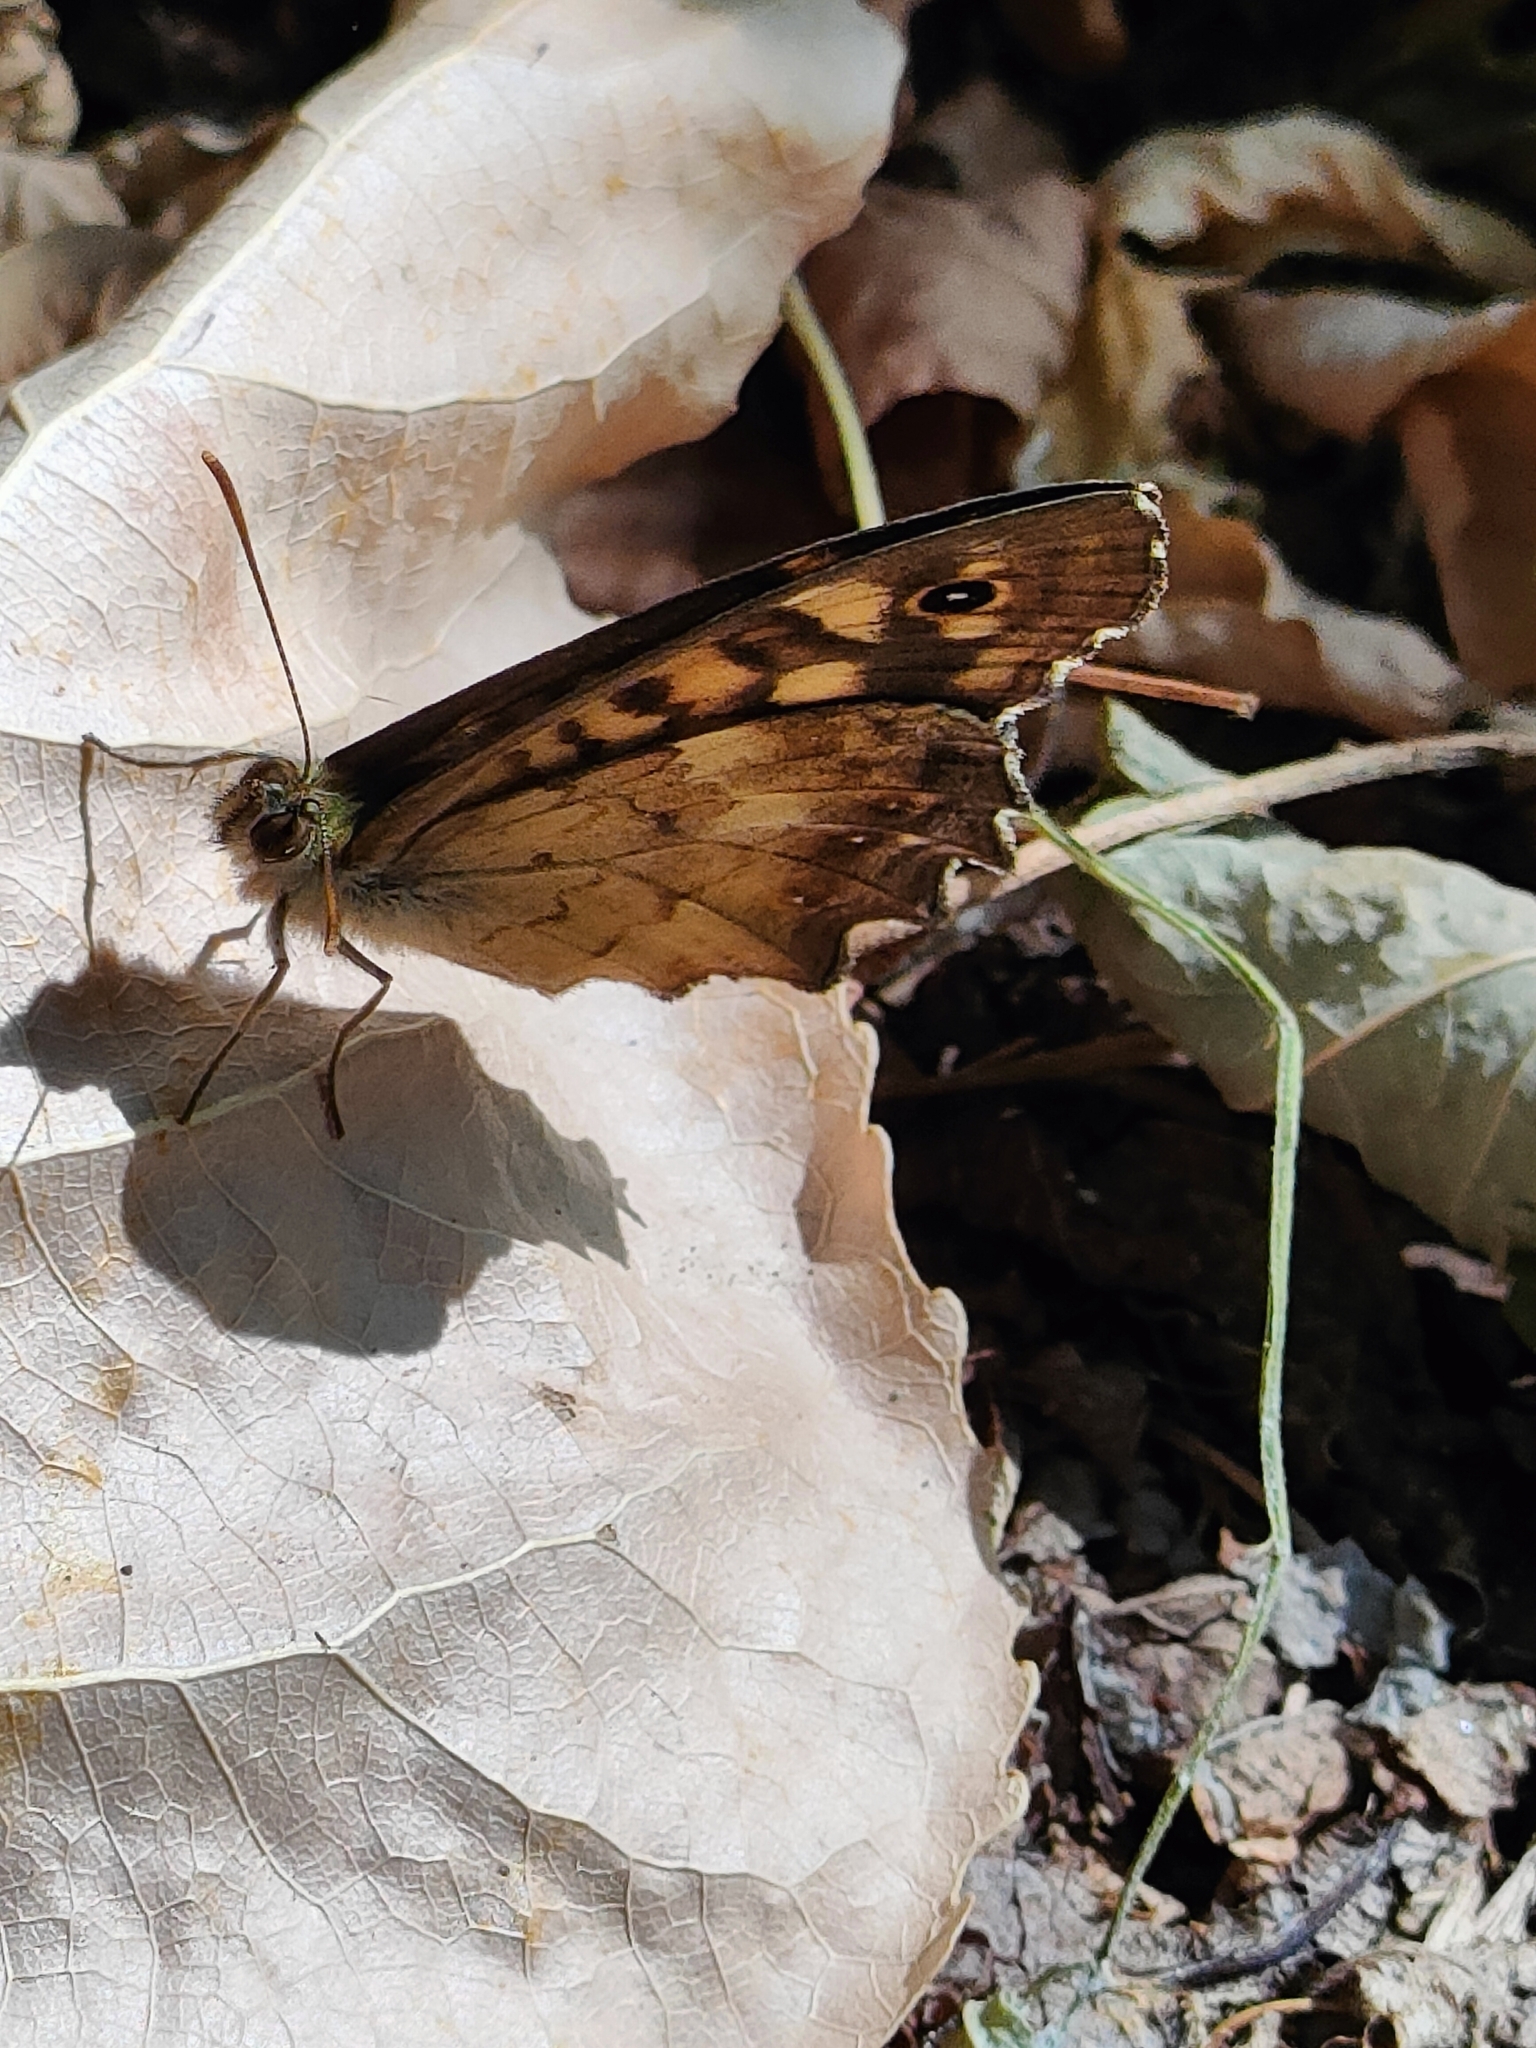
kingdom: Animalia
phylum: Arthropoda
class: Insecta
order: Lepidoptera
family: Nymphalidae
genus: Pararge
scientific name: Pararge aegeria
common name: Speckled wood
